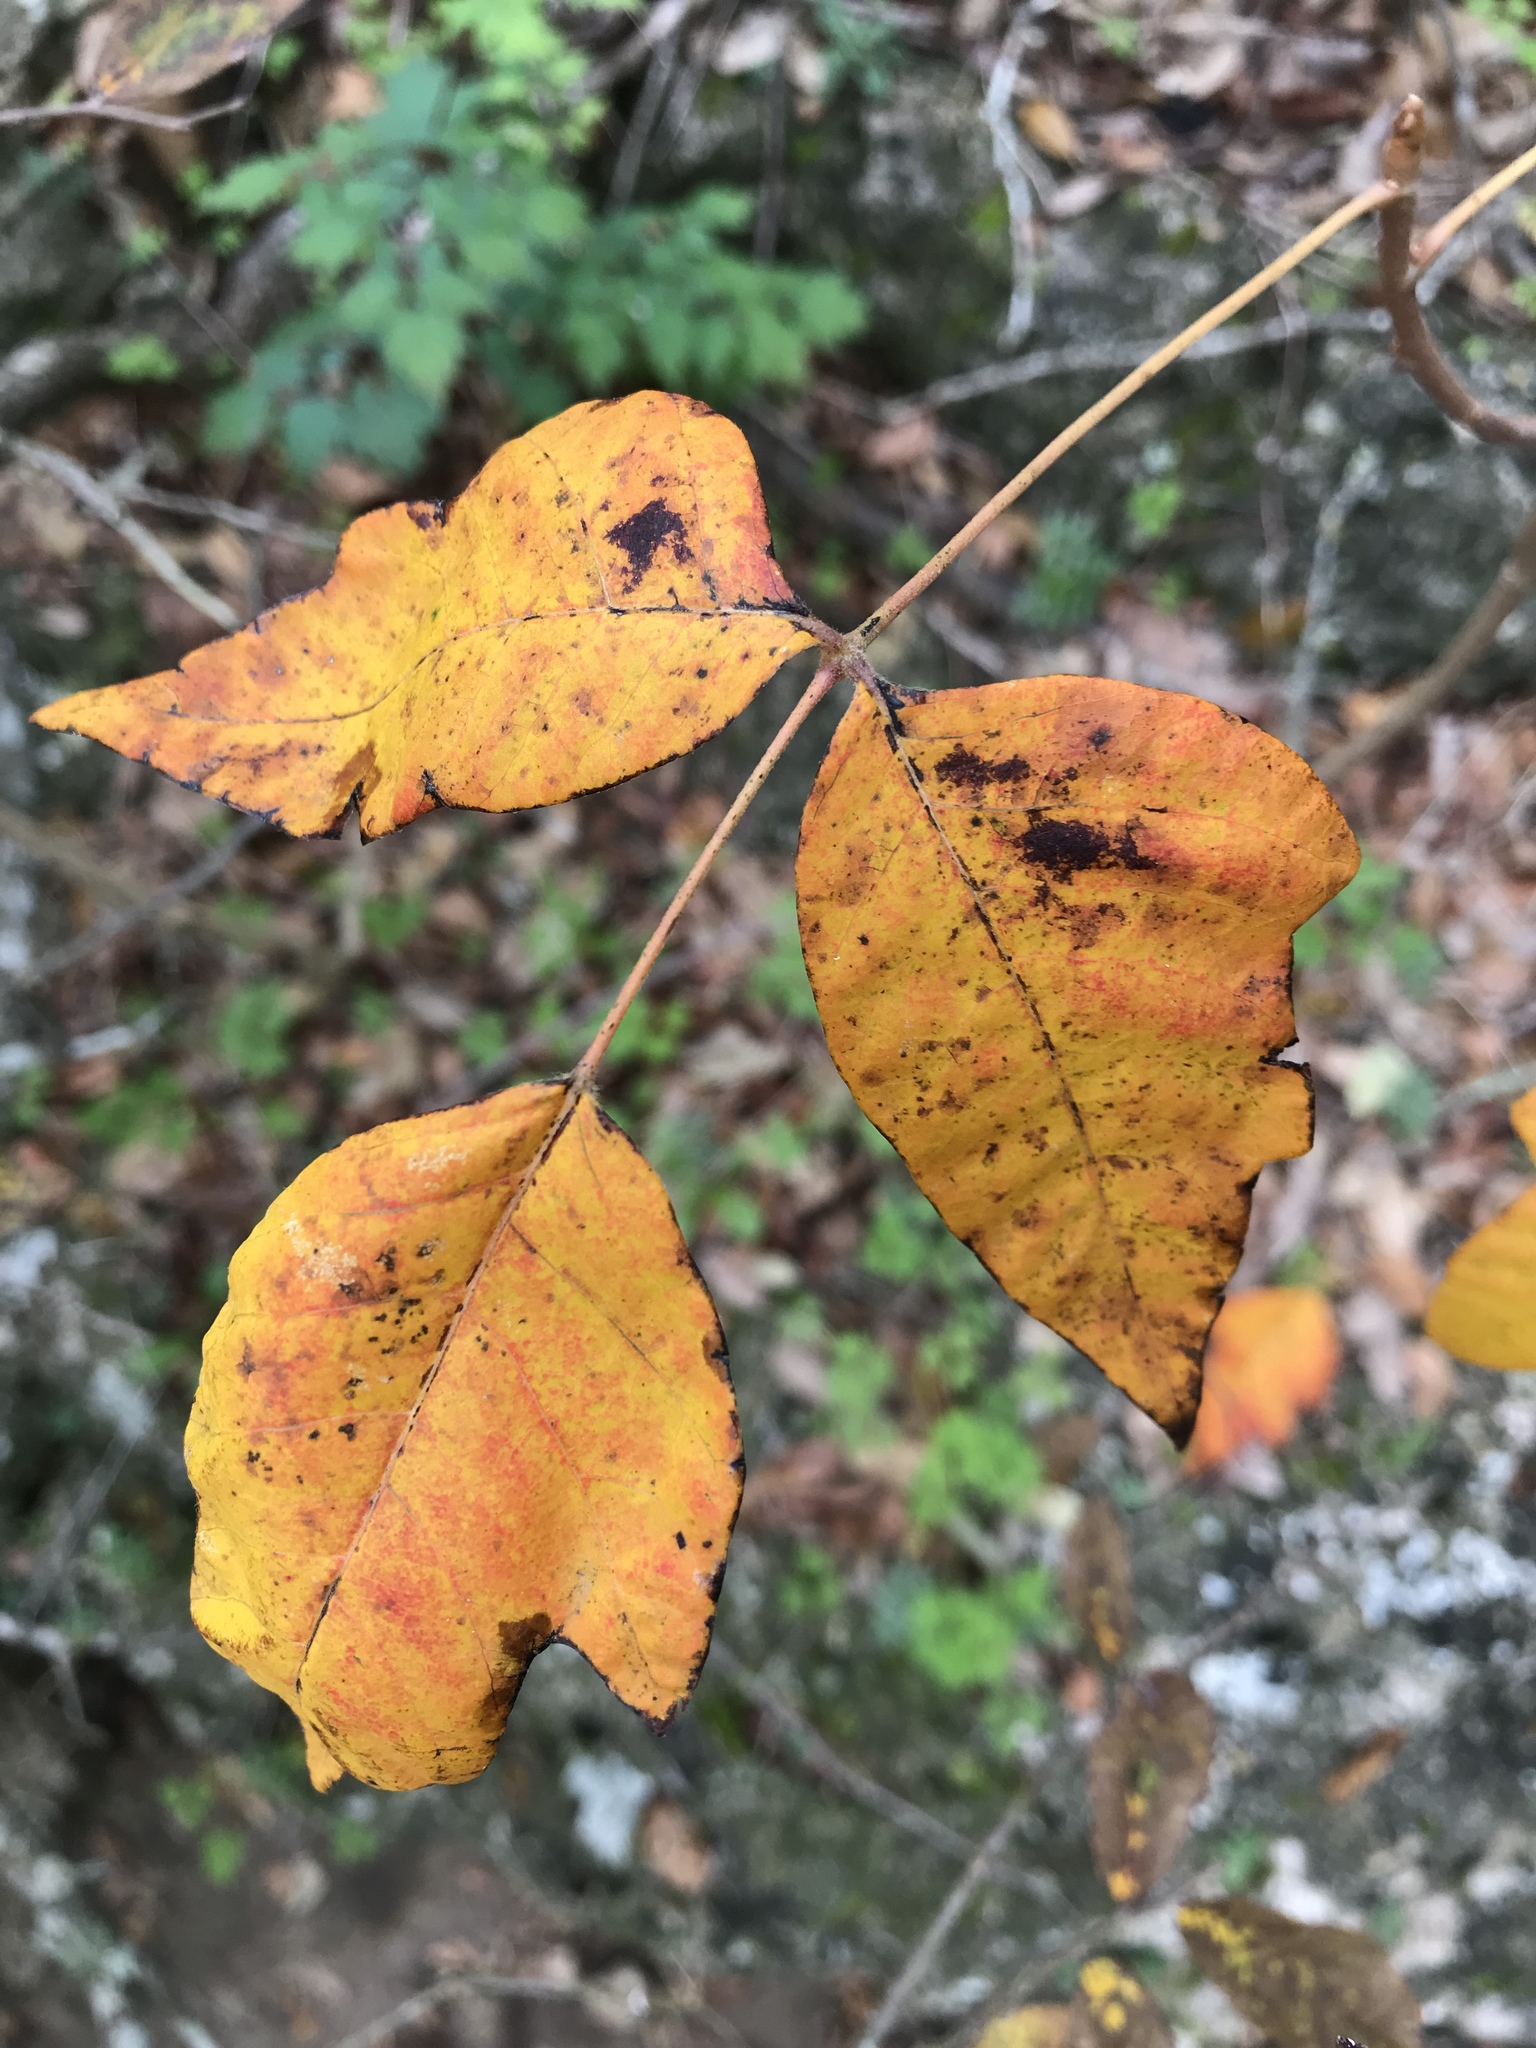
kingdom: Plantae
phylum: Tracheophyta
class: Magnoliopsida
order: Sapindales
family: Anacardiaceae
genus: Toxicodendron
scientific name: Toxicodendron radicans
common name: Poison ivy
